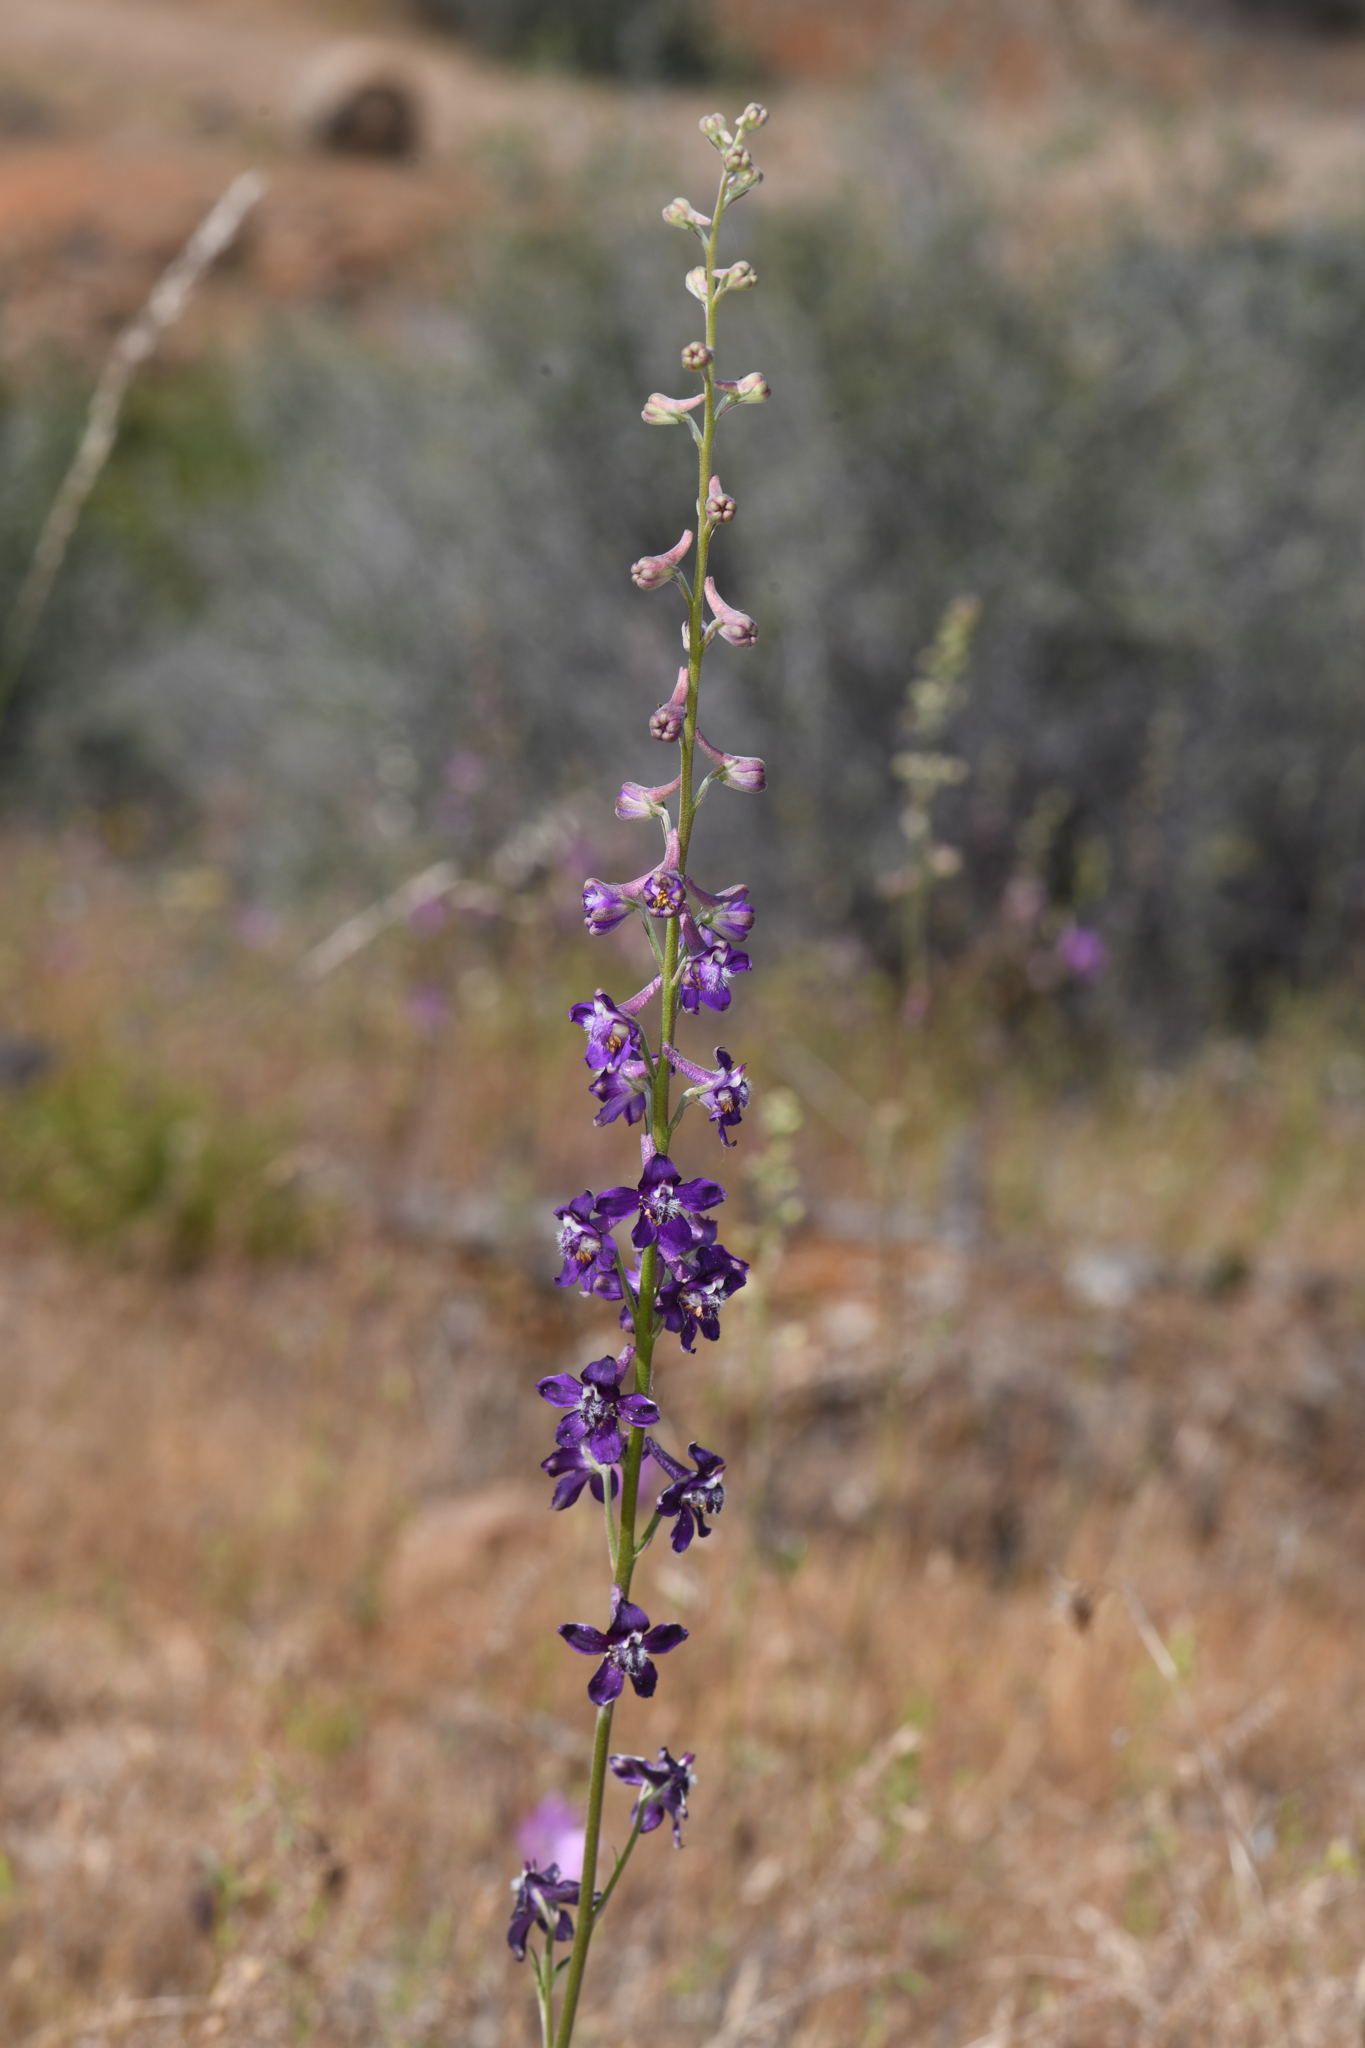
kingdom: Plantae
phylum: Tracheophyta
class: Magnoliopsida
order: Ranunculales
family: Ranunculaceae
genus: Delphinium
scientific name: Delphinium hansenii
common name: Hansen's larkspur
